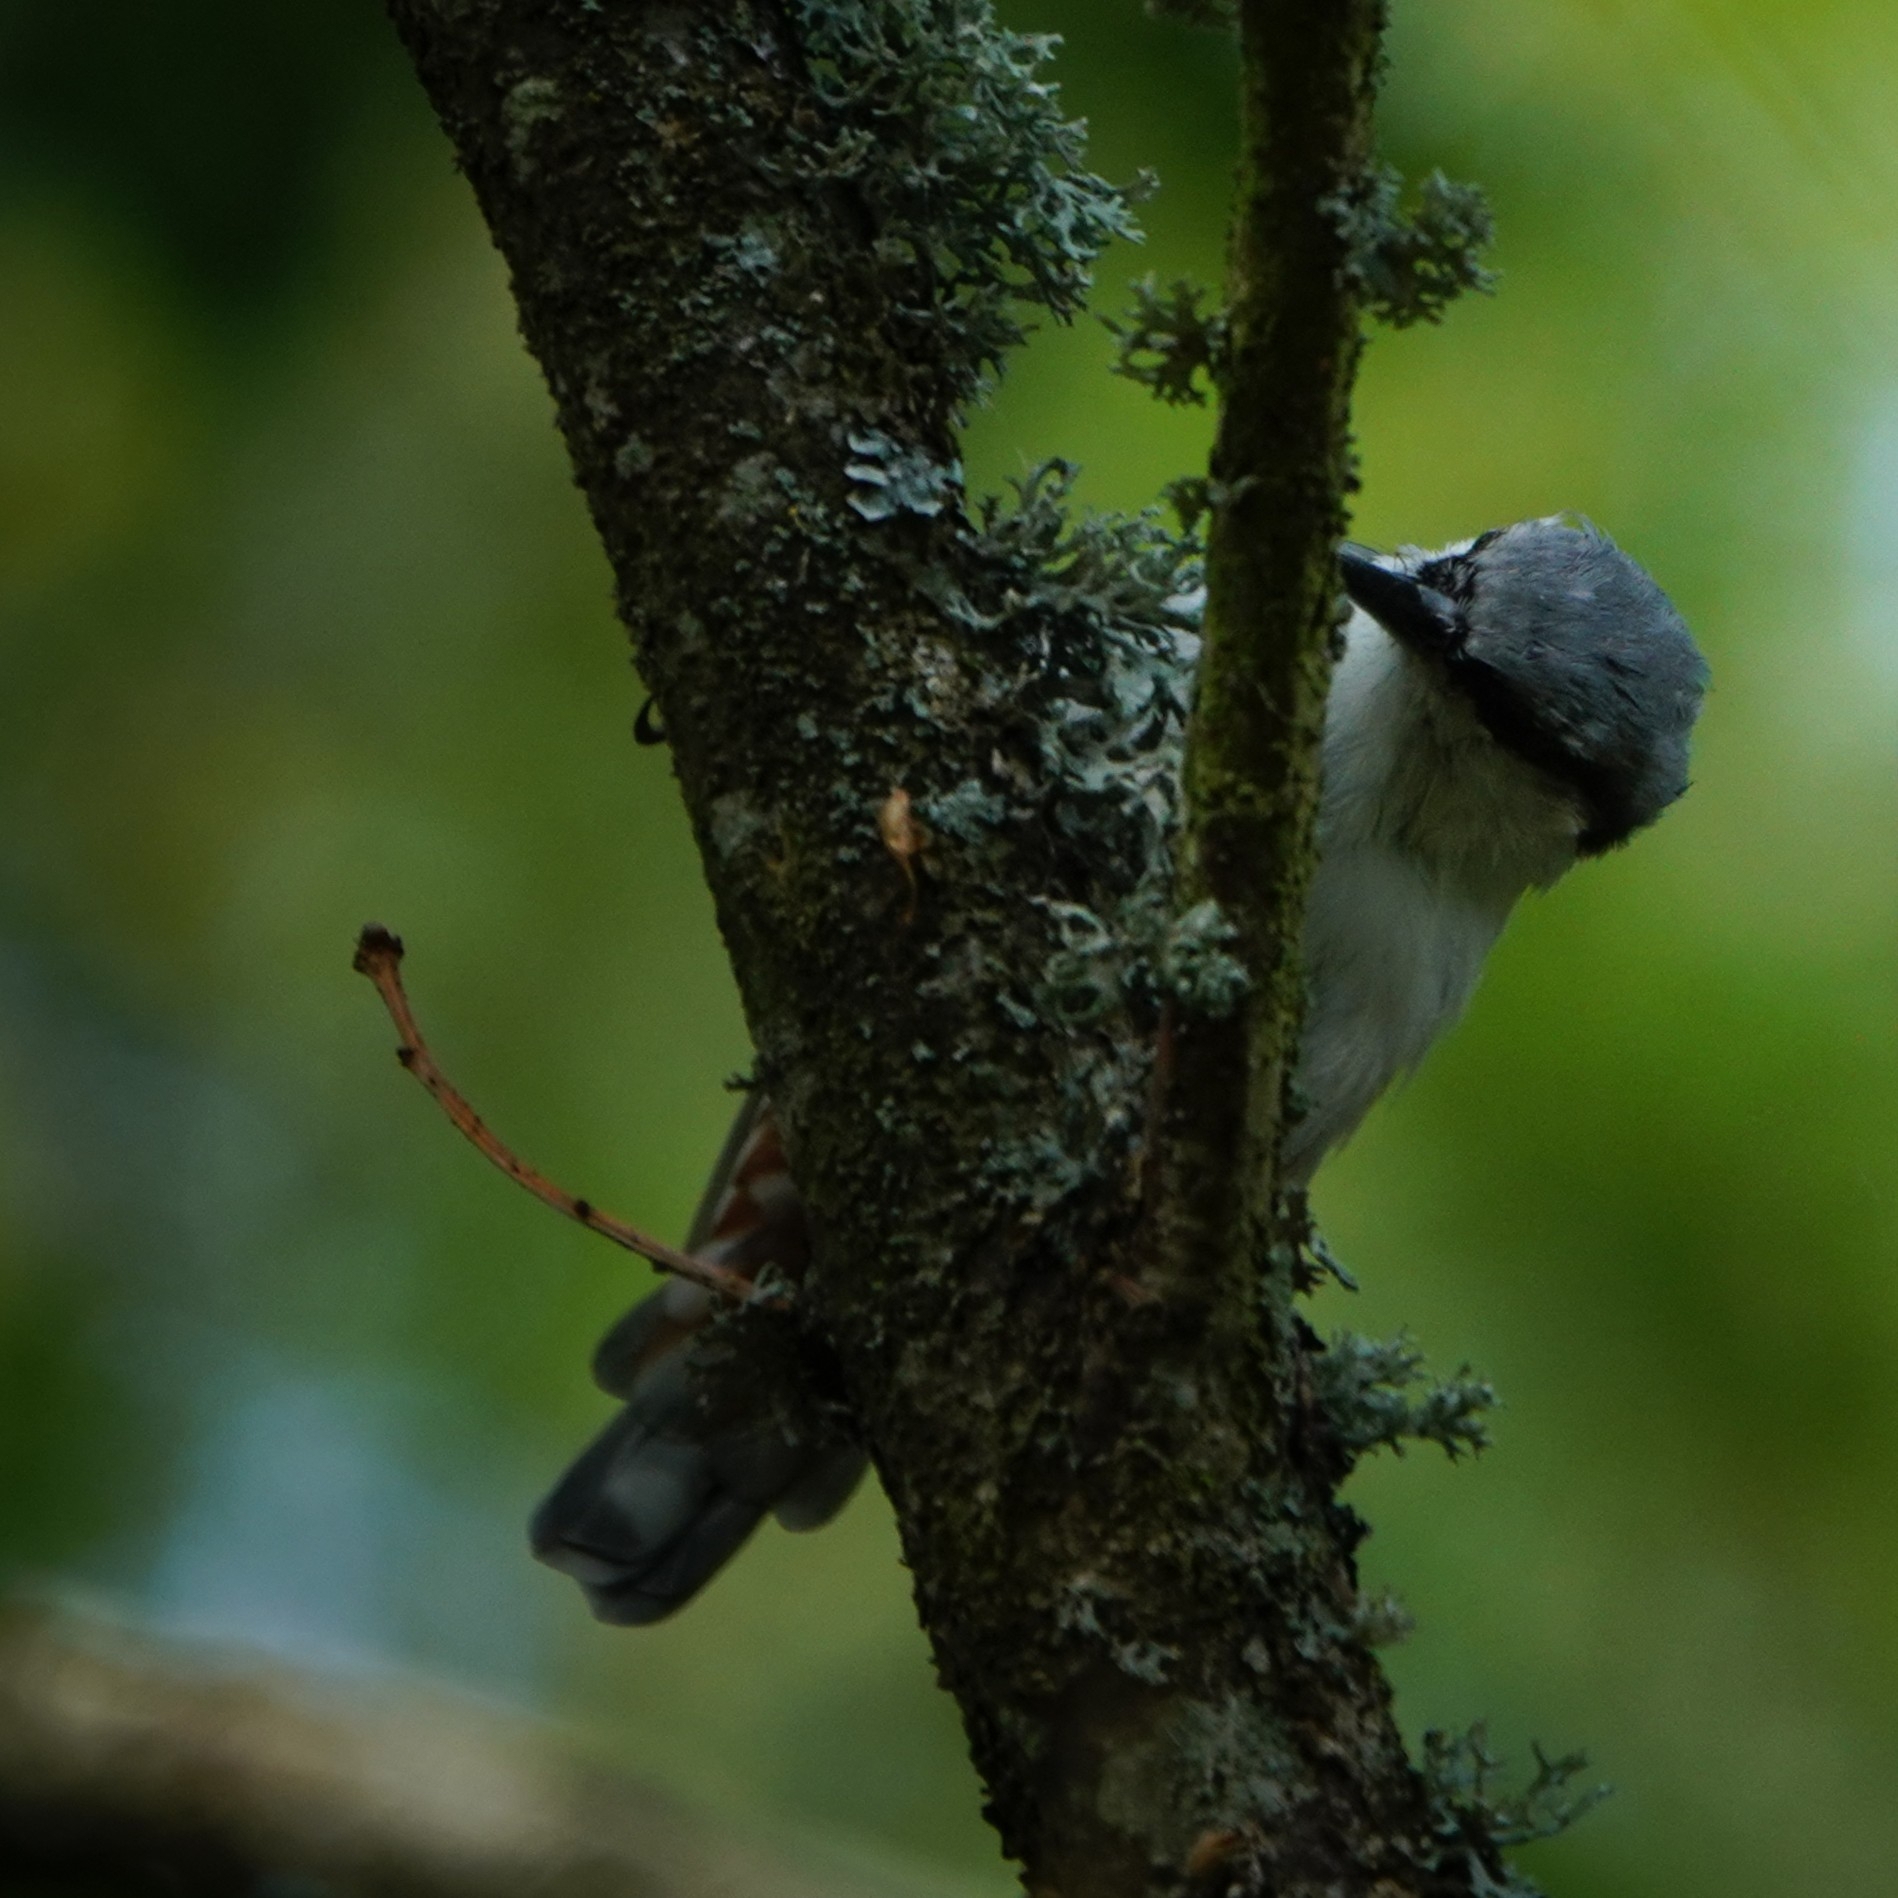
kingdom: Animalia
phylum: Chordata
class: Aves
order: Passeriformes
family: Sittidae
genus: Sitta
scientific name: Sitta europaea
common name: Eurasian nuthatch
